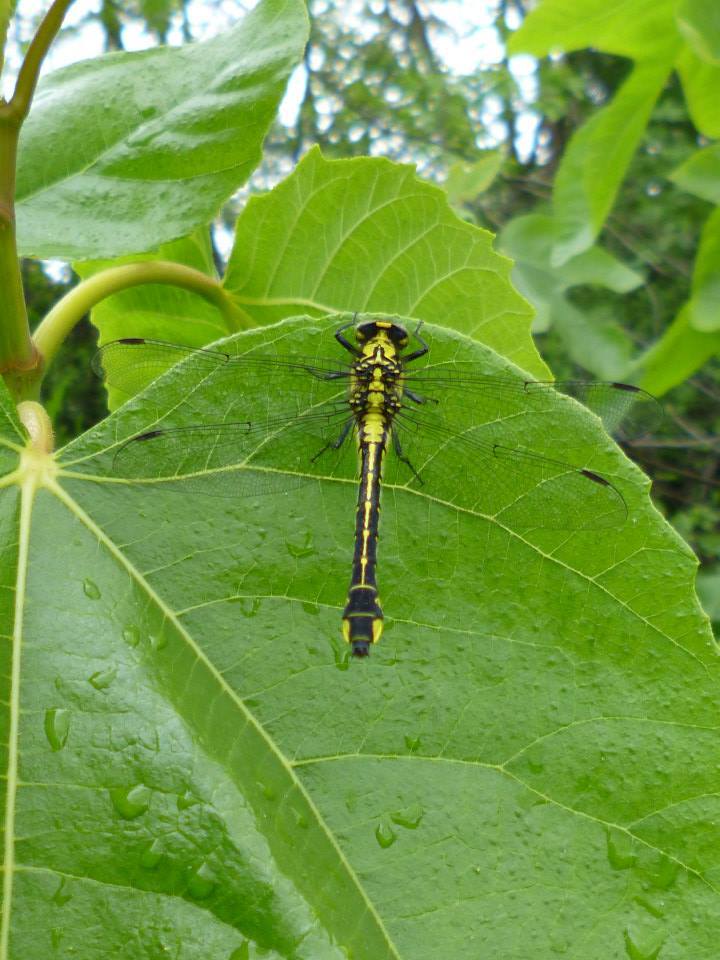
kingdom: Animalia
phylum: Arthropoda
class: Insecta
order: Odonata
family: Gomphidae
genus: Gomphus
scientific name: Gomphus vulgatissimus
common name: Club-tailed dragonfly
